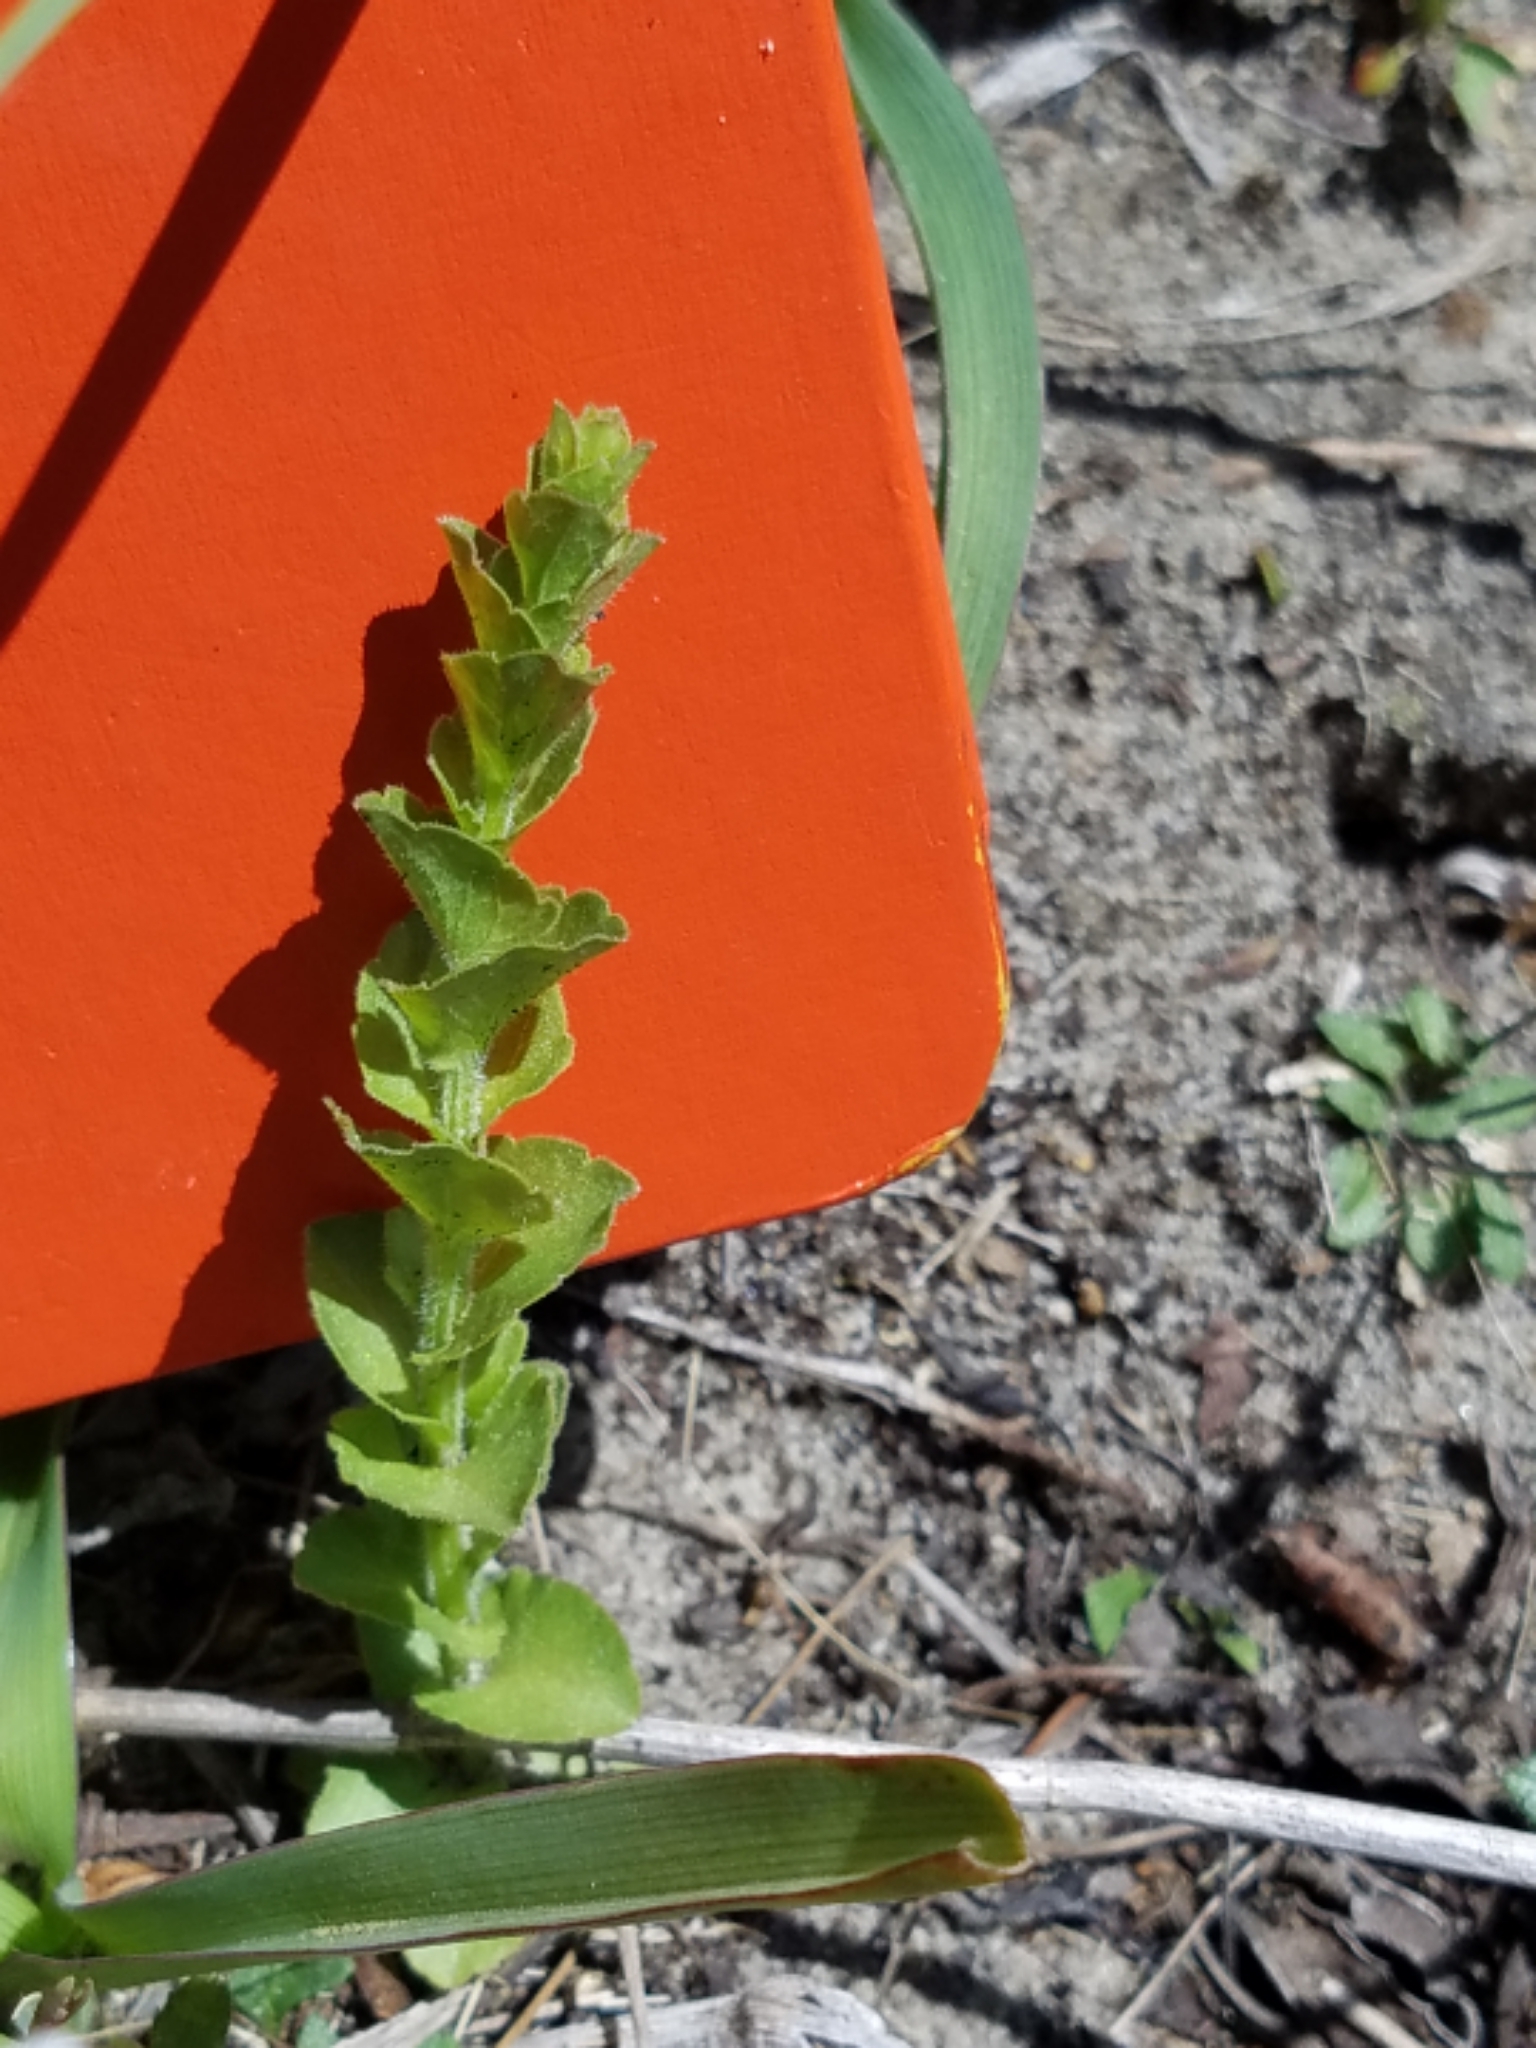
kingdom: Plantae
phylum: Tracheophyta
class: Magnoliopsida
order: Asterales
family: Campanulaceae
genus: Triodanis
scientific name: Triodanis perfoliata
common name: Clasping venus' looking-glass
